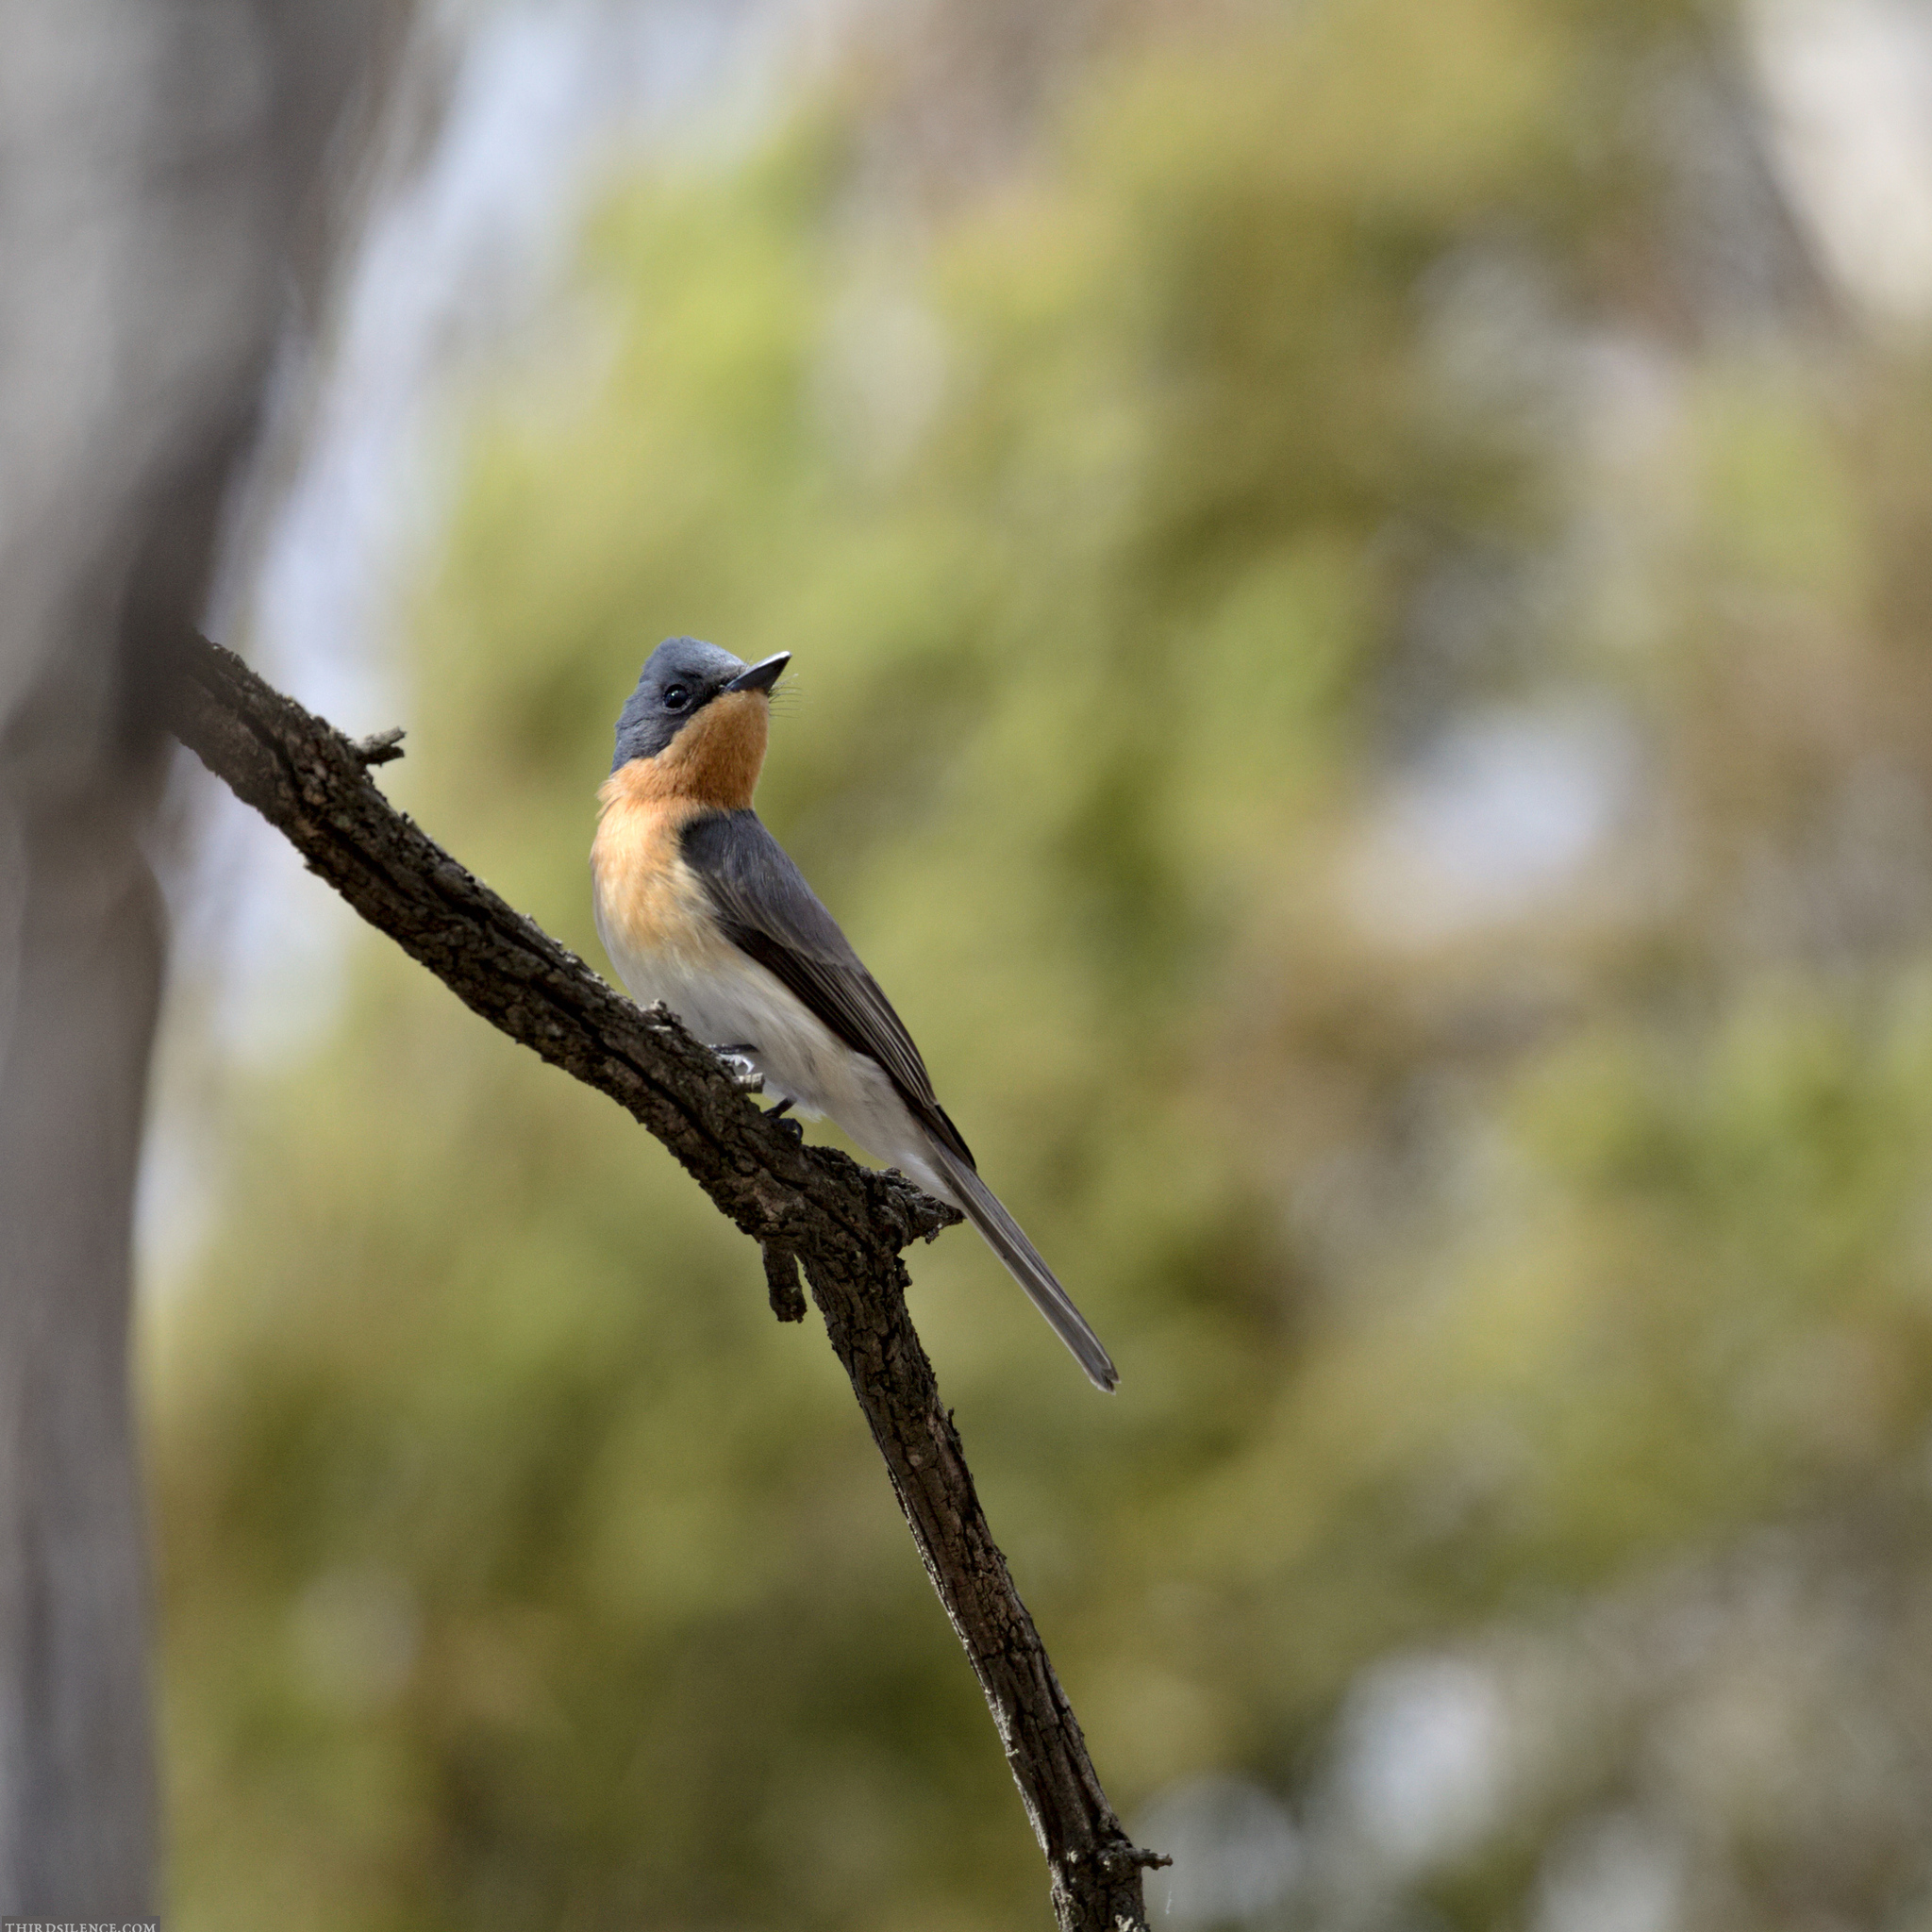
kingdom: Animalia
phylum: Chordata
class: Aves
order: Passeriformes
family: Monarchidae
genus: Myiagra
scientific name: Myiagra rubecula
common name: Leaden flycatcher
